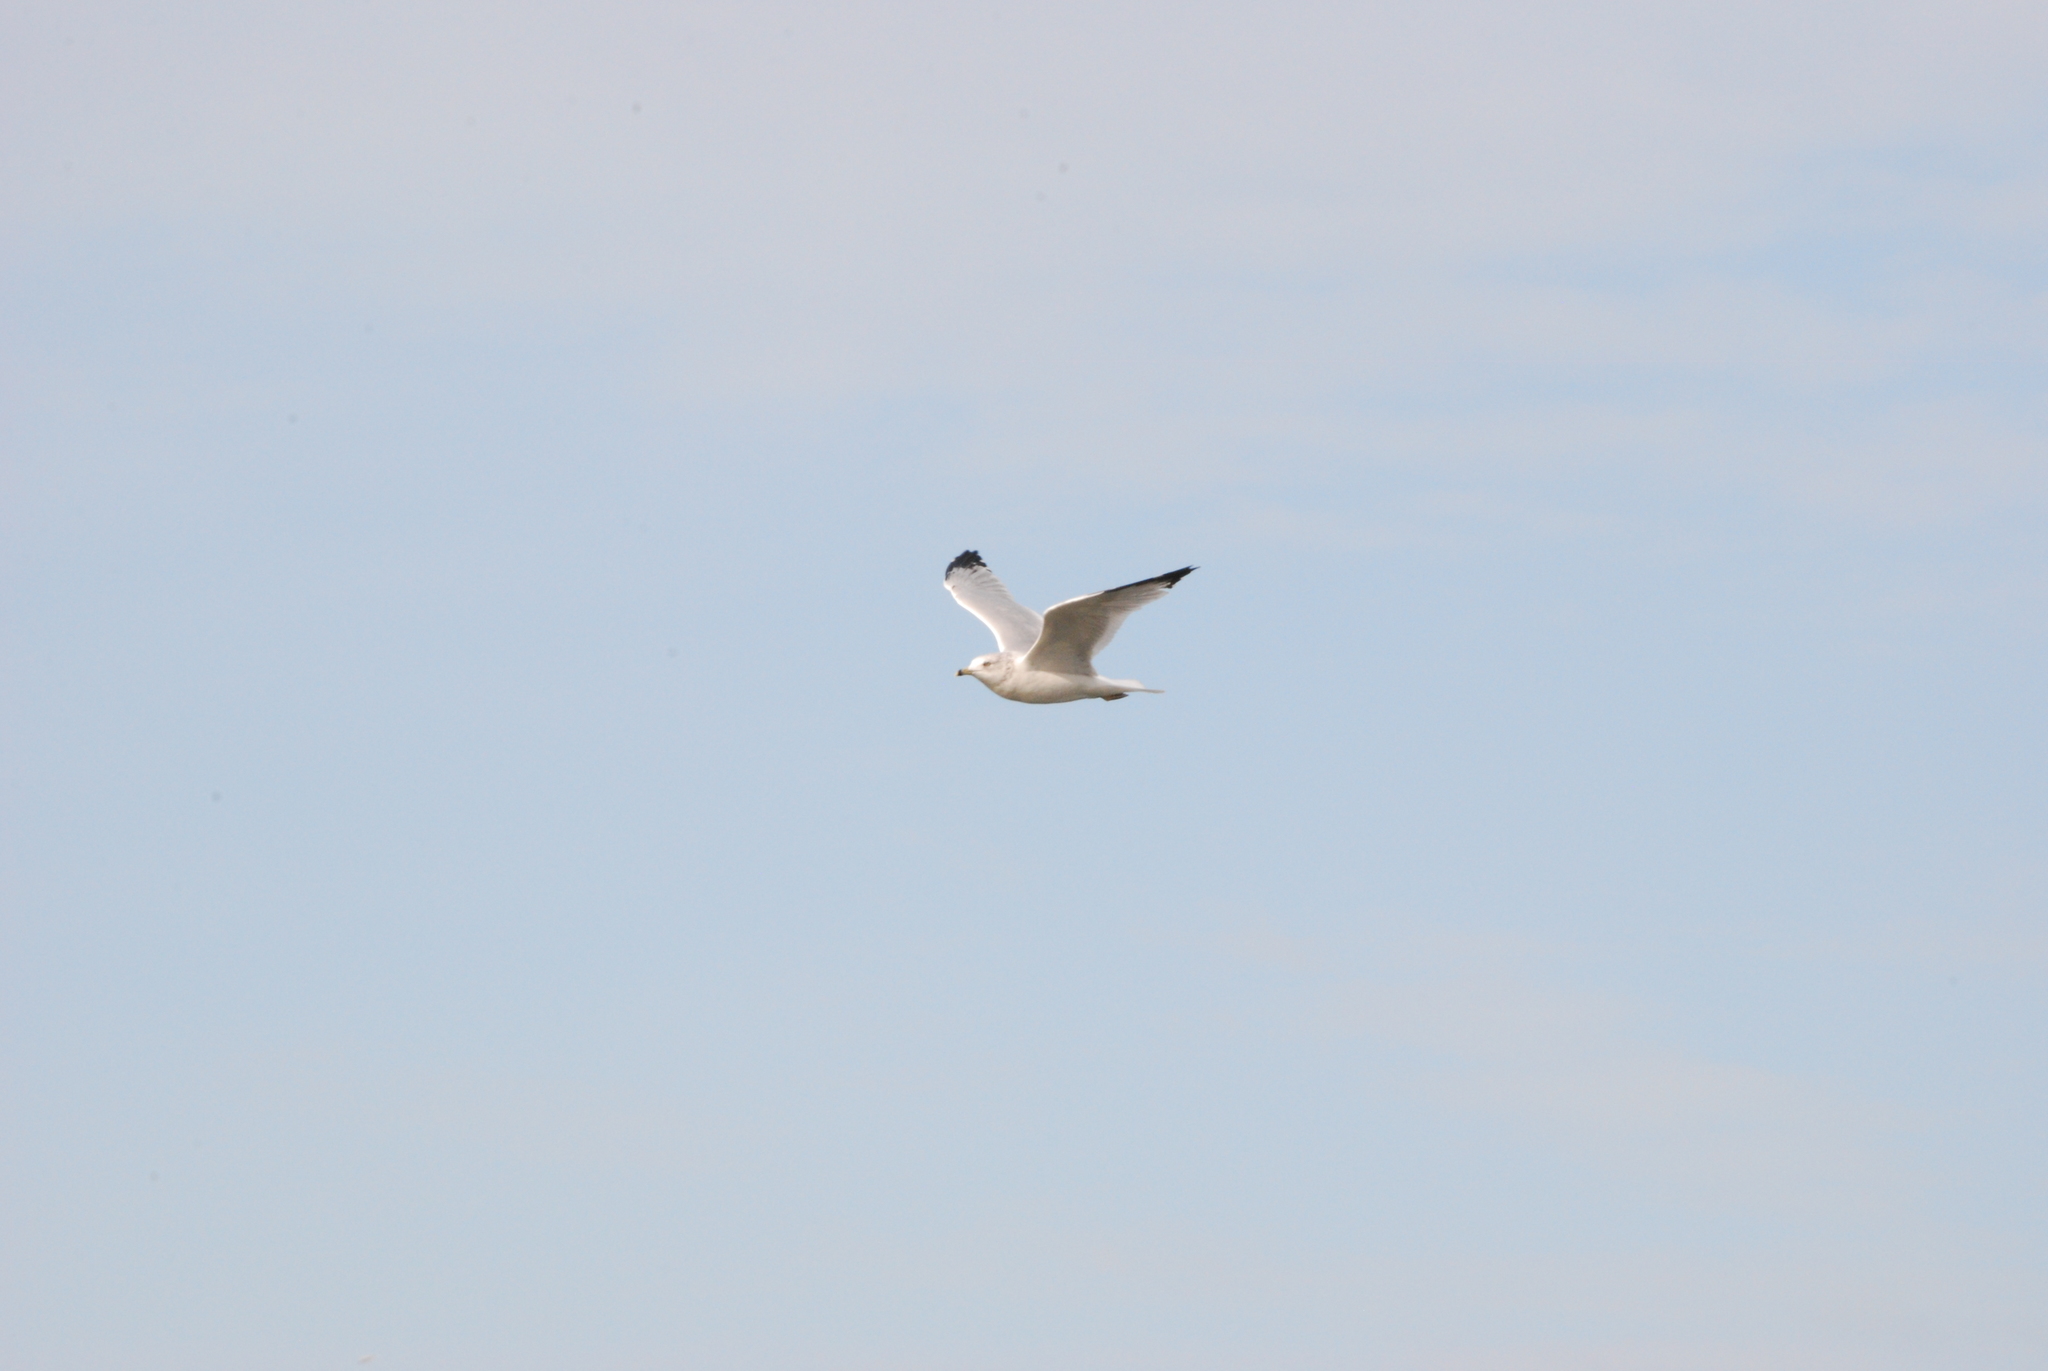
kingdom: Animalia
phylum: Chordata
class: Aves
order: Charadriiformes
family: Laridae
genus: Larus
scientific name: Larus delawarensis
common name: Ring-billed gull
